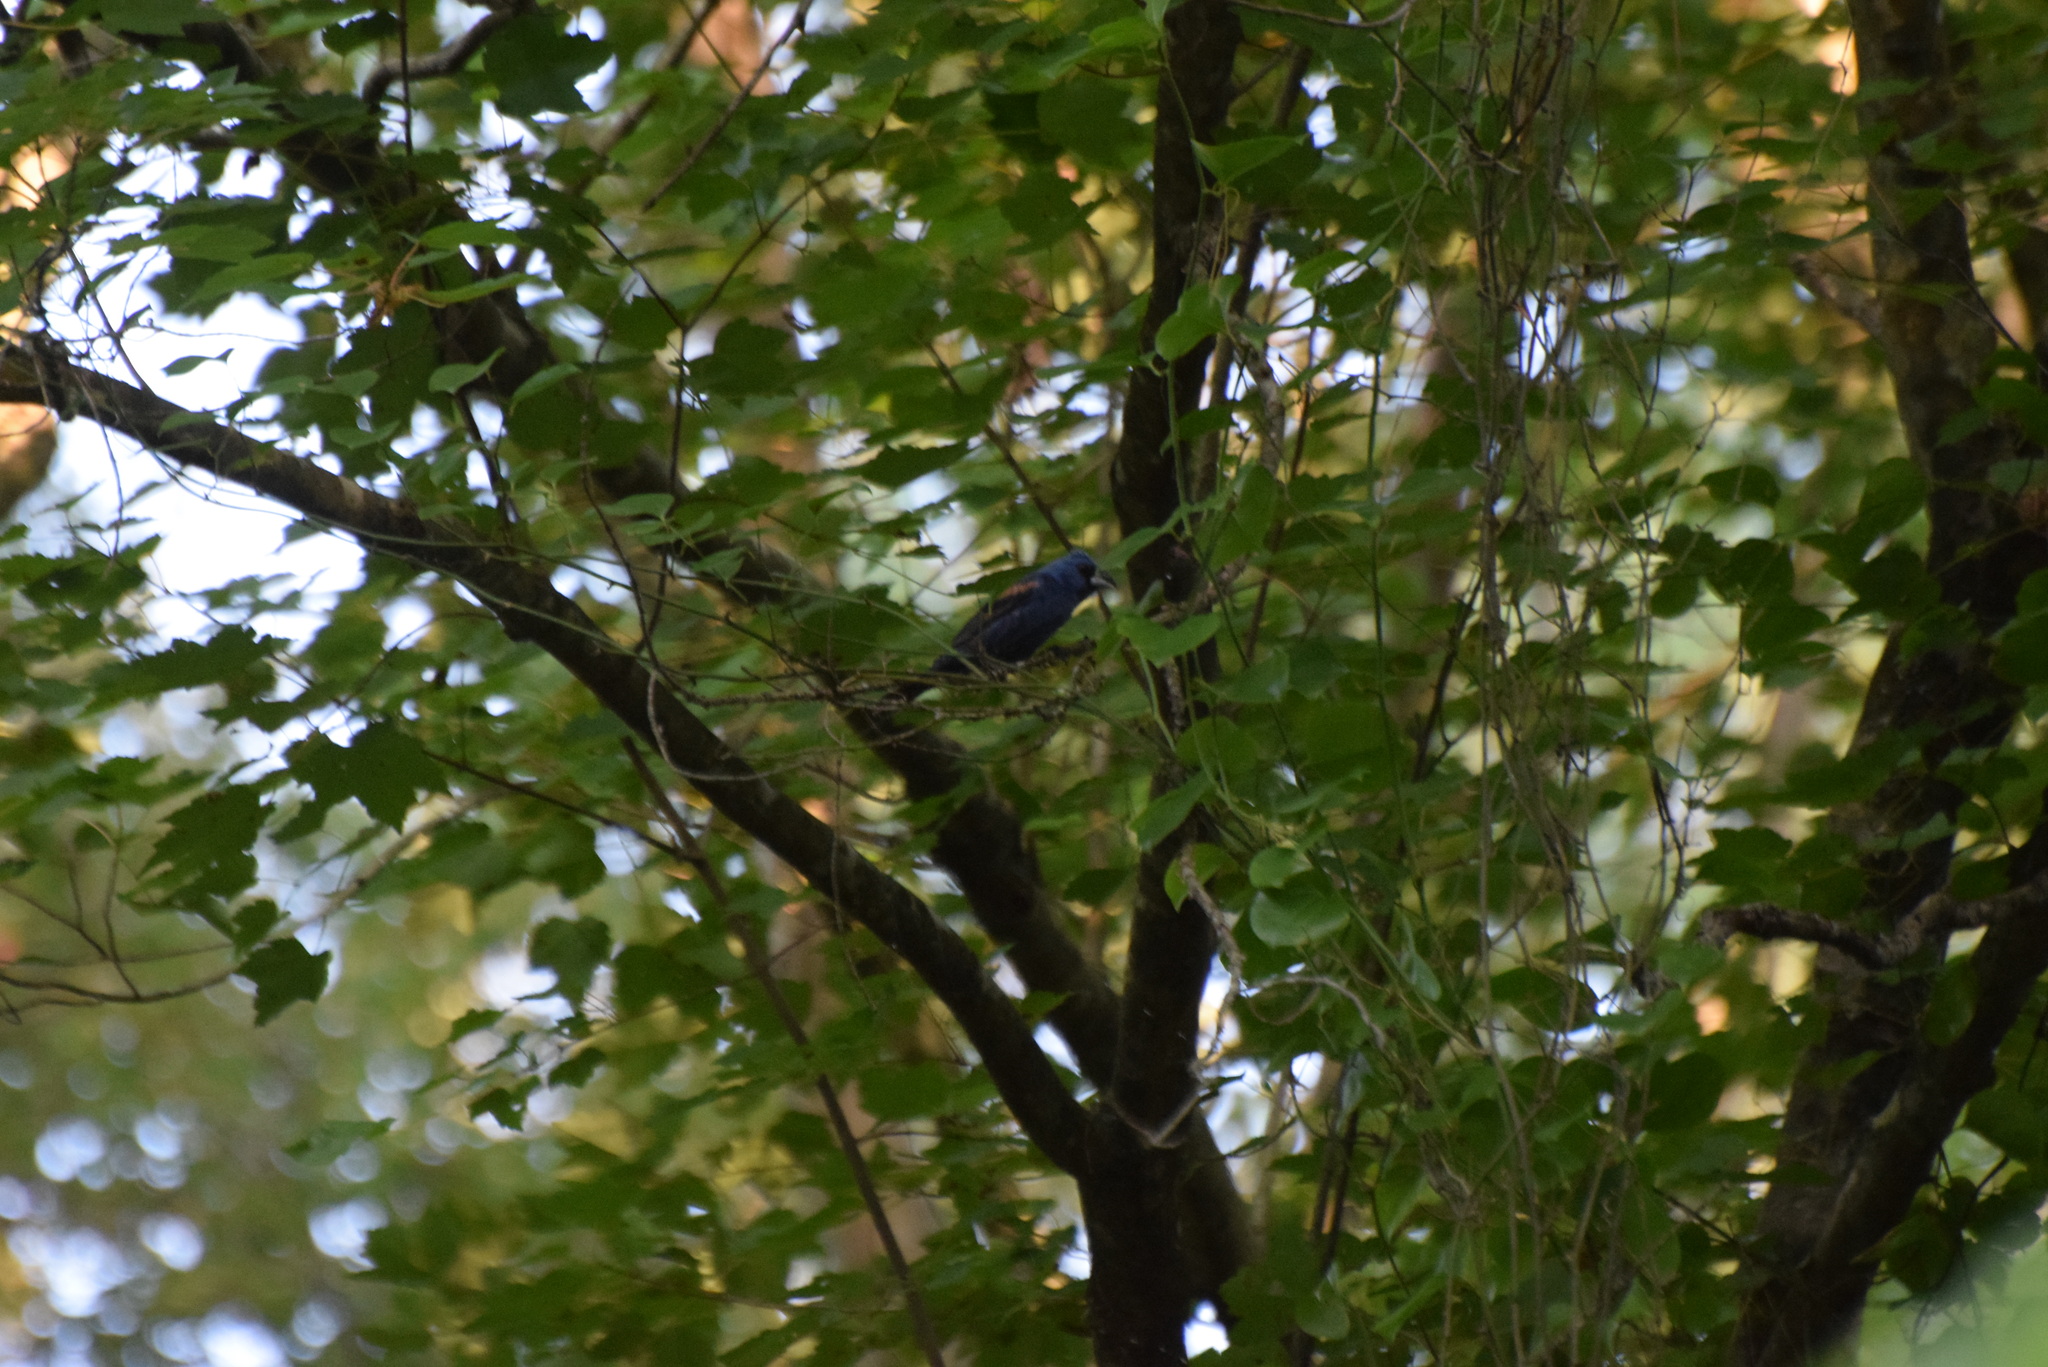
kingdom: Animalia
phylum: Chordata
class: Aves
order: Passeriformes
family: Cardinalidae
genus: Passerina
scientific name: Passerina caerulea
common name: Blue grosbeak
